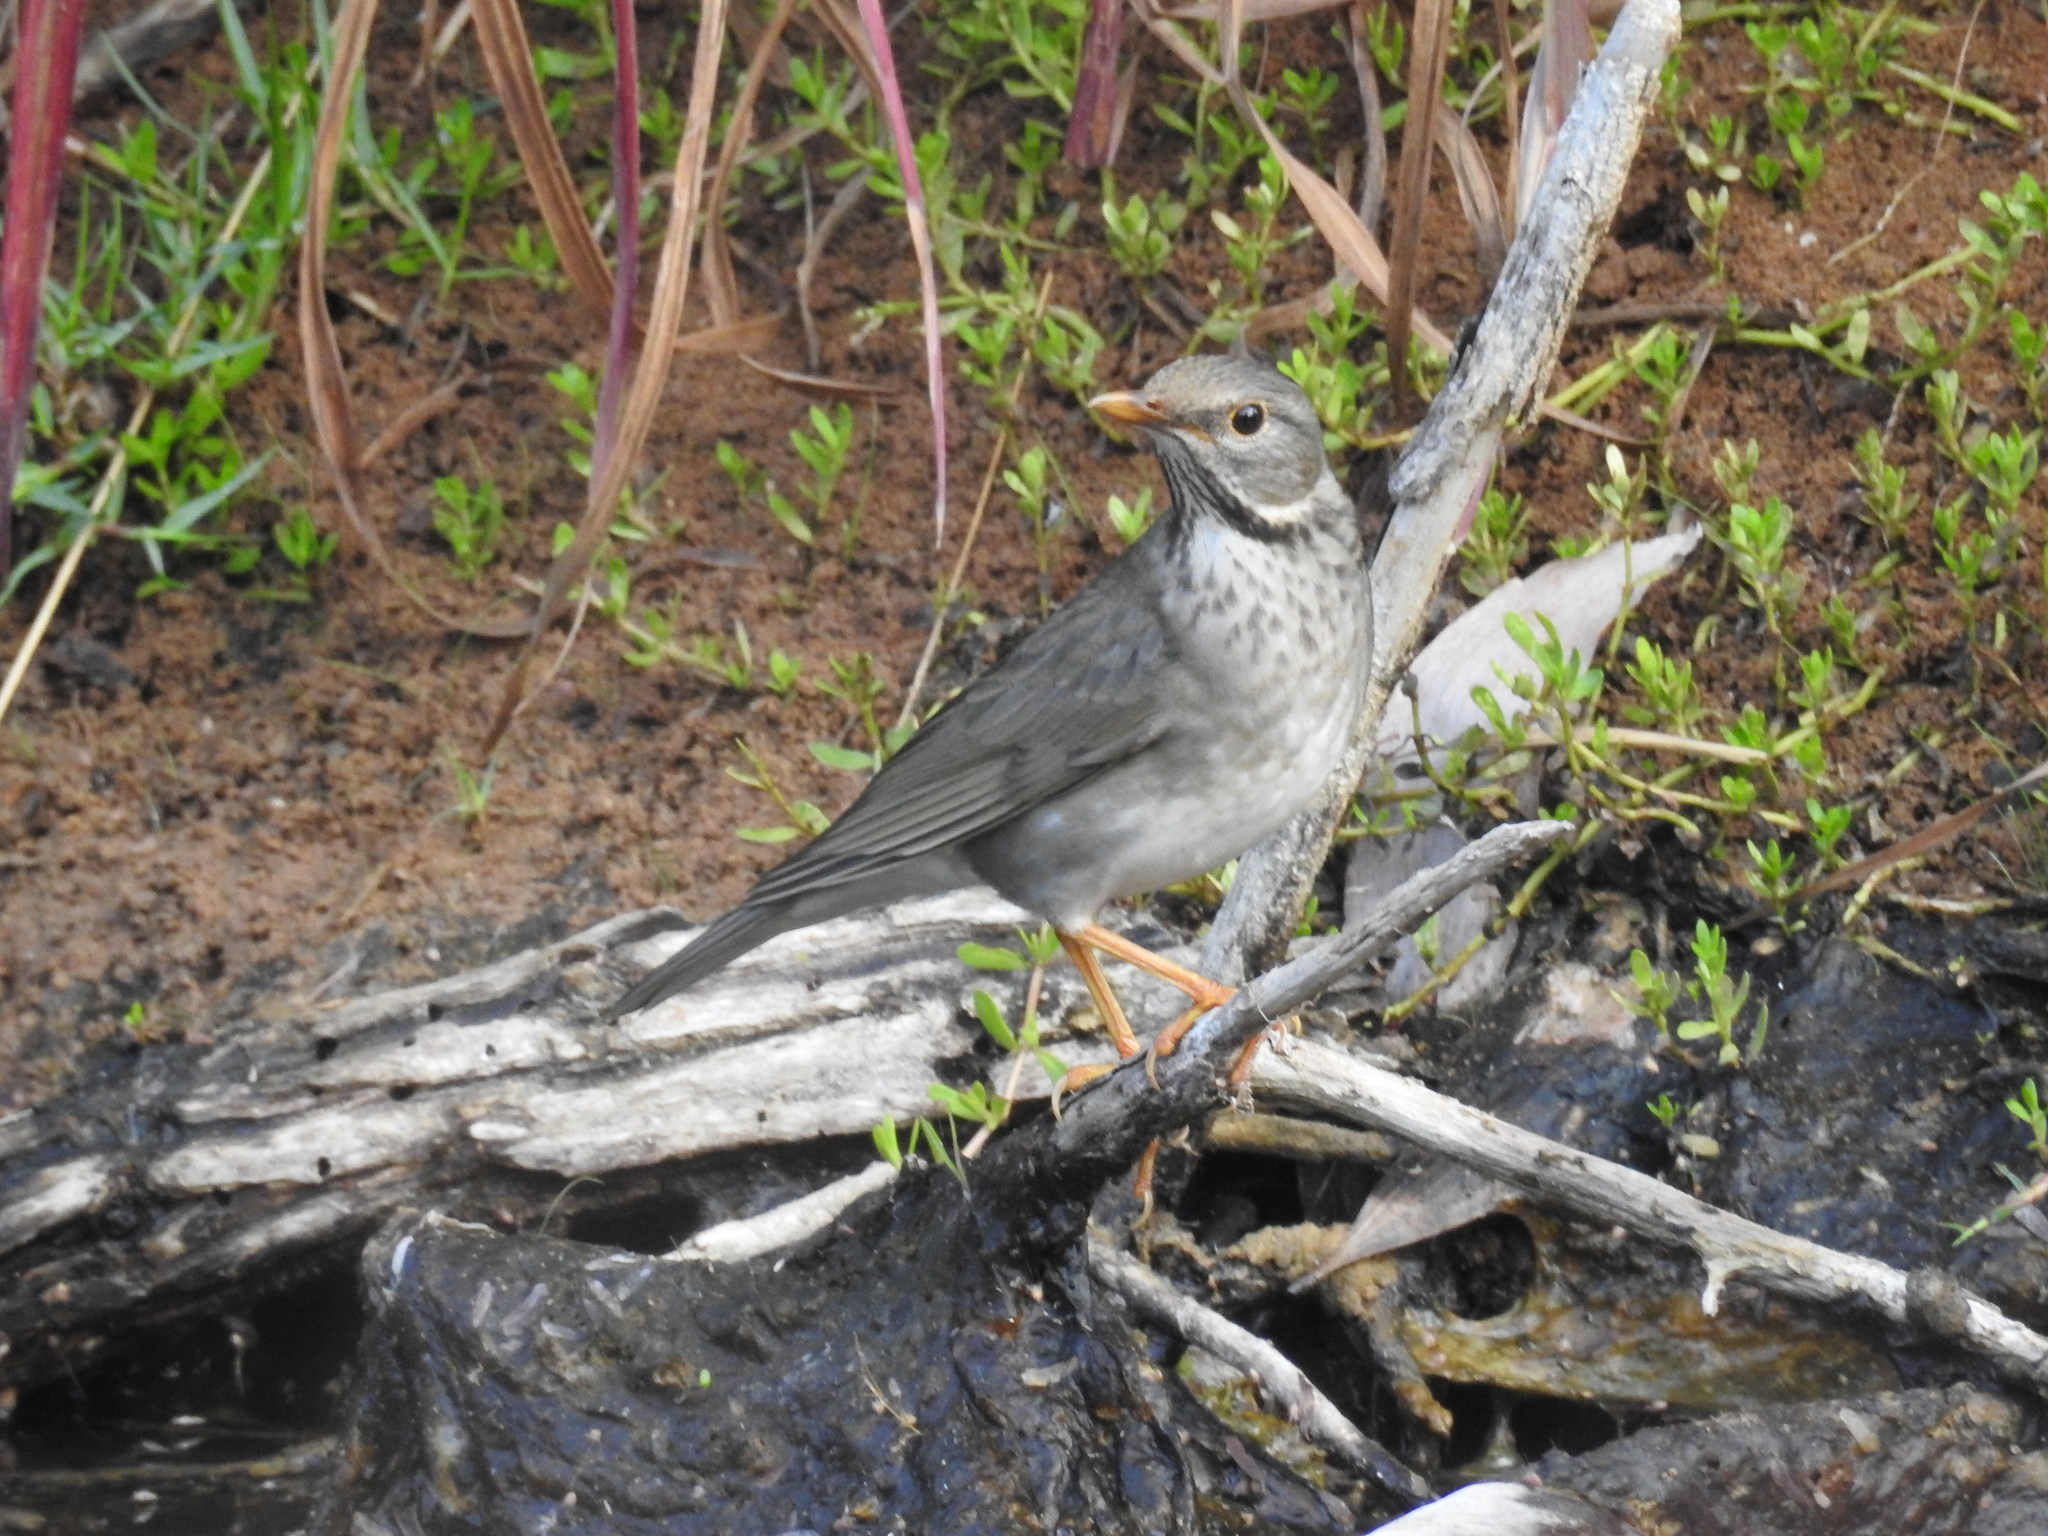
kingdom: Animalia
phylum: Chordata
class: Aves
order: Passeriformes
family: Turdidae
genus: Turdus
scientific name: Turdus unicolor
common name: Tickell's thrush
